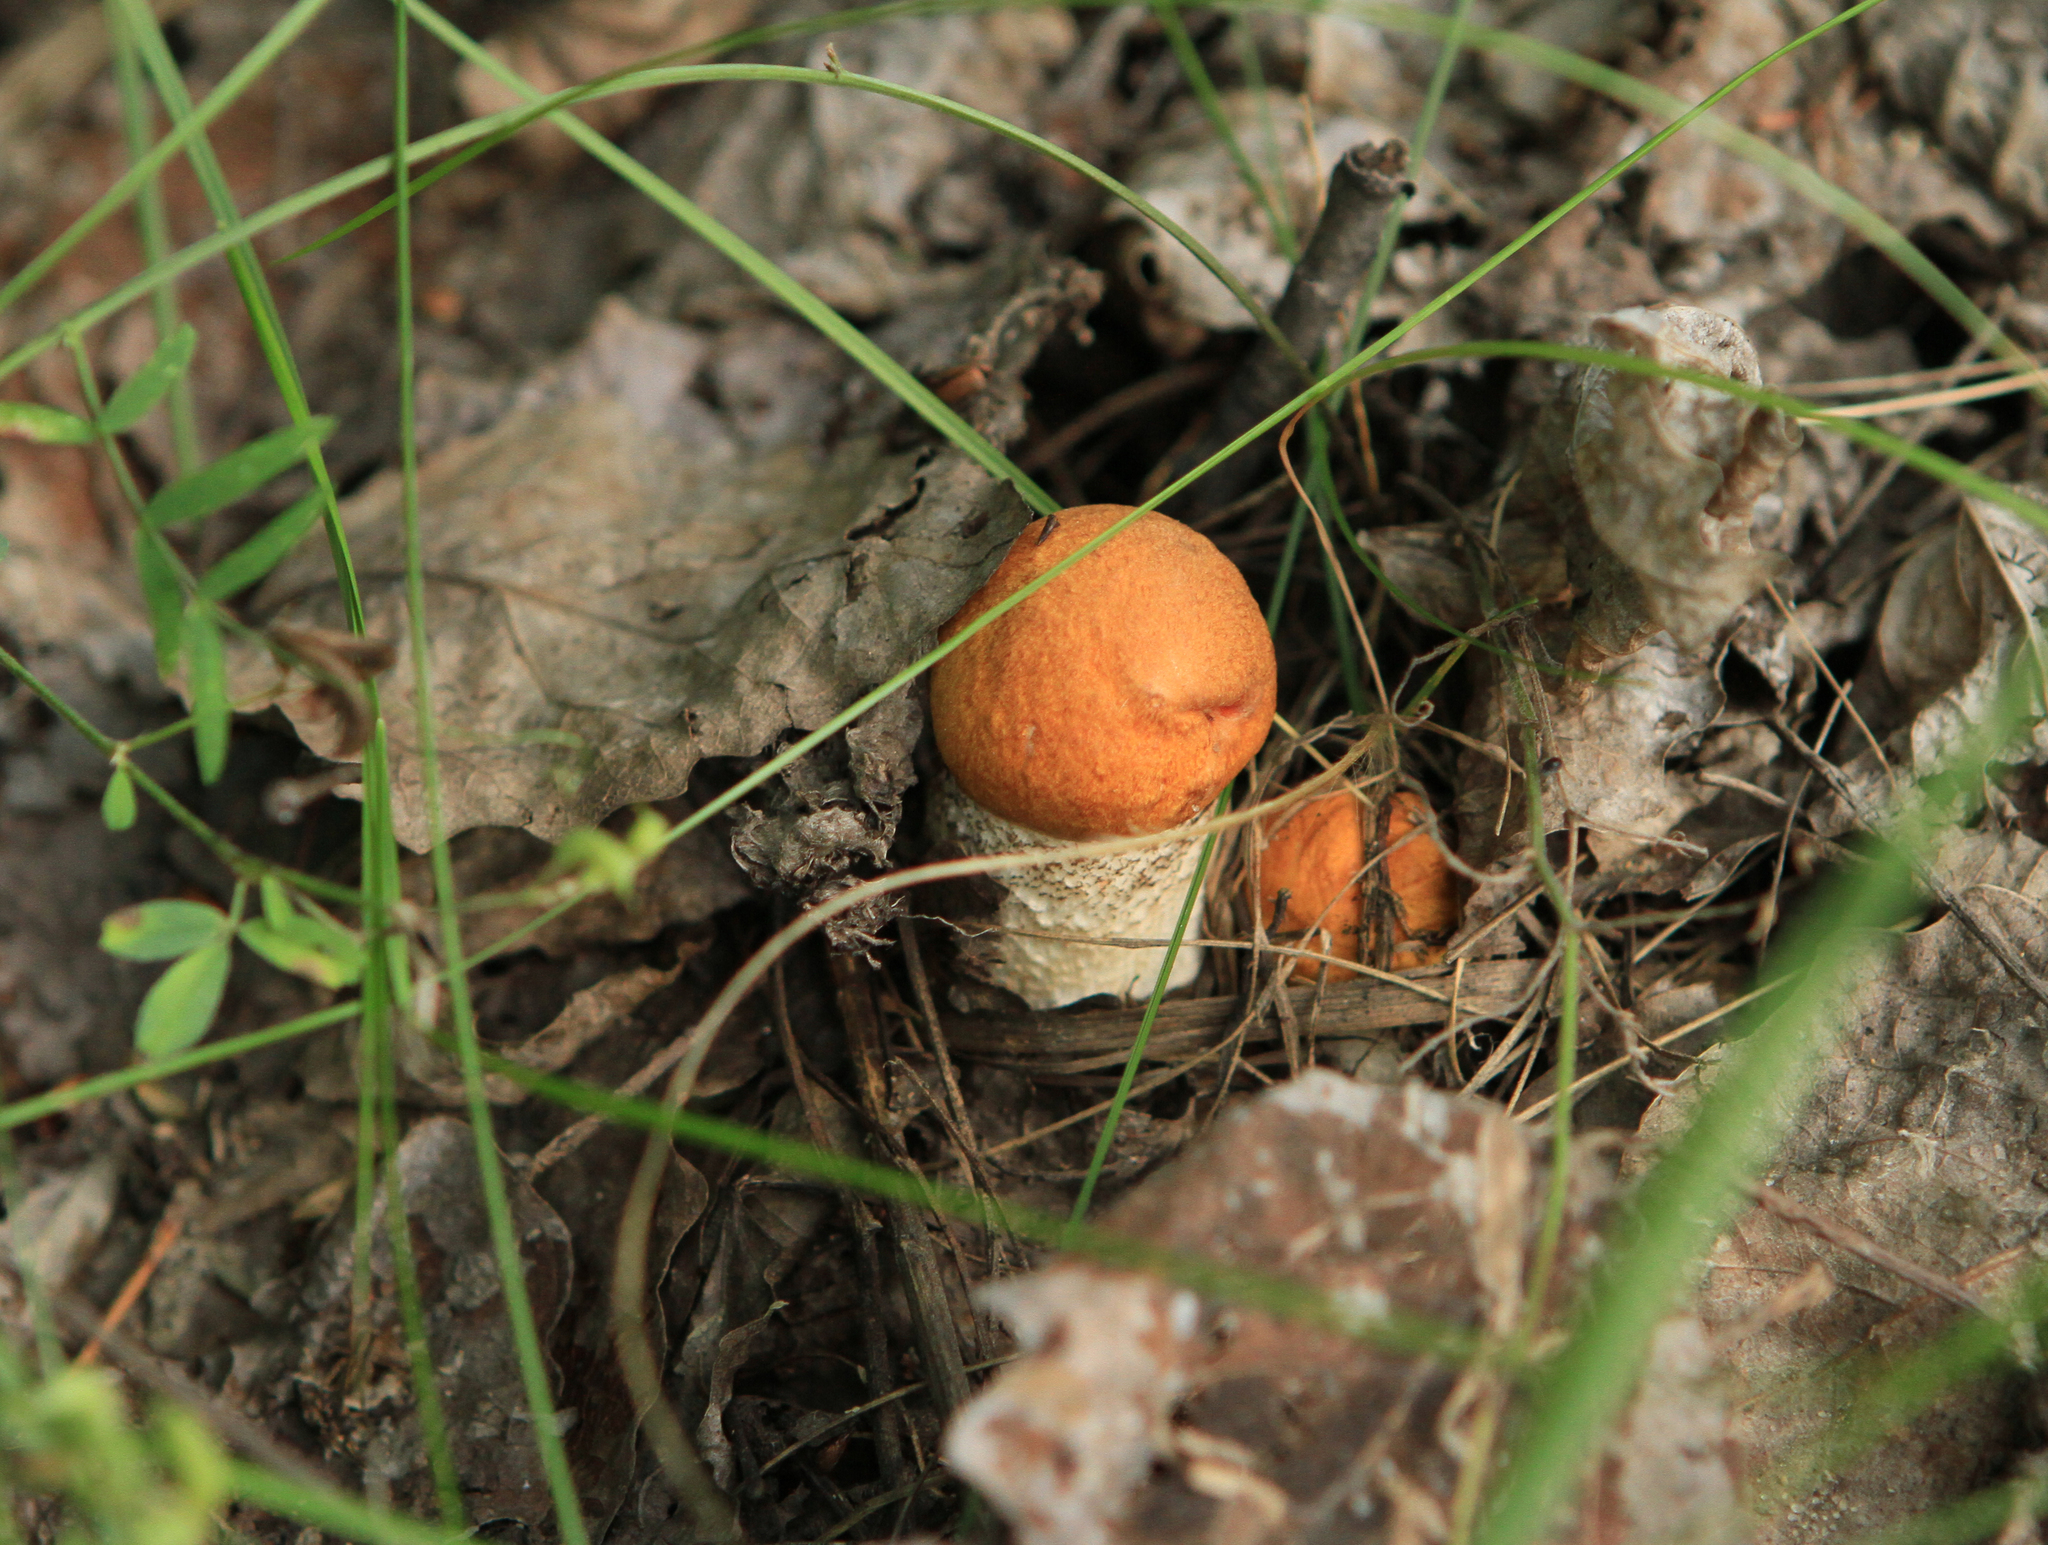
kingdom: Fungi
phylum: Basidiomycota
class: Agaricomycetes
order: Boletales
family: Boletaceae
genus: Leccinum
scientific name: Leccinum albostipitatum
